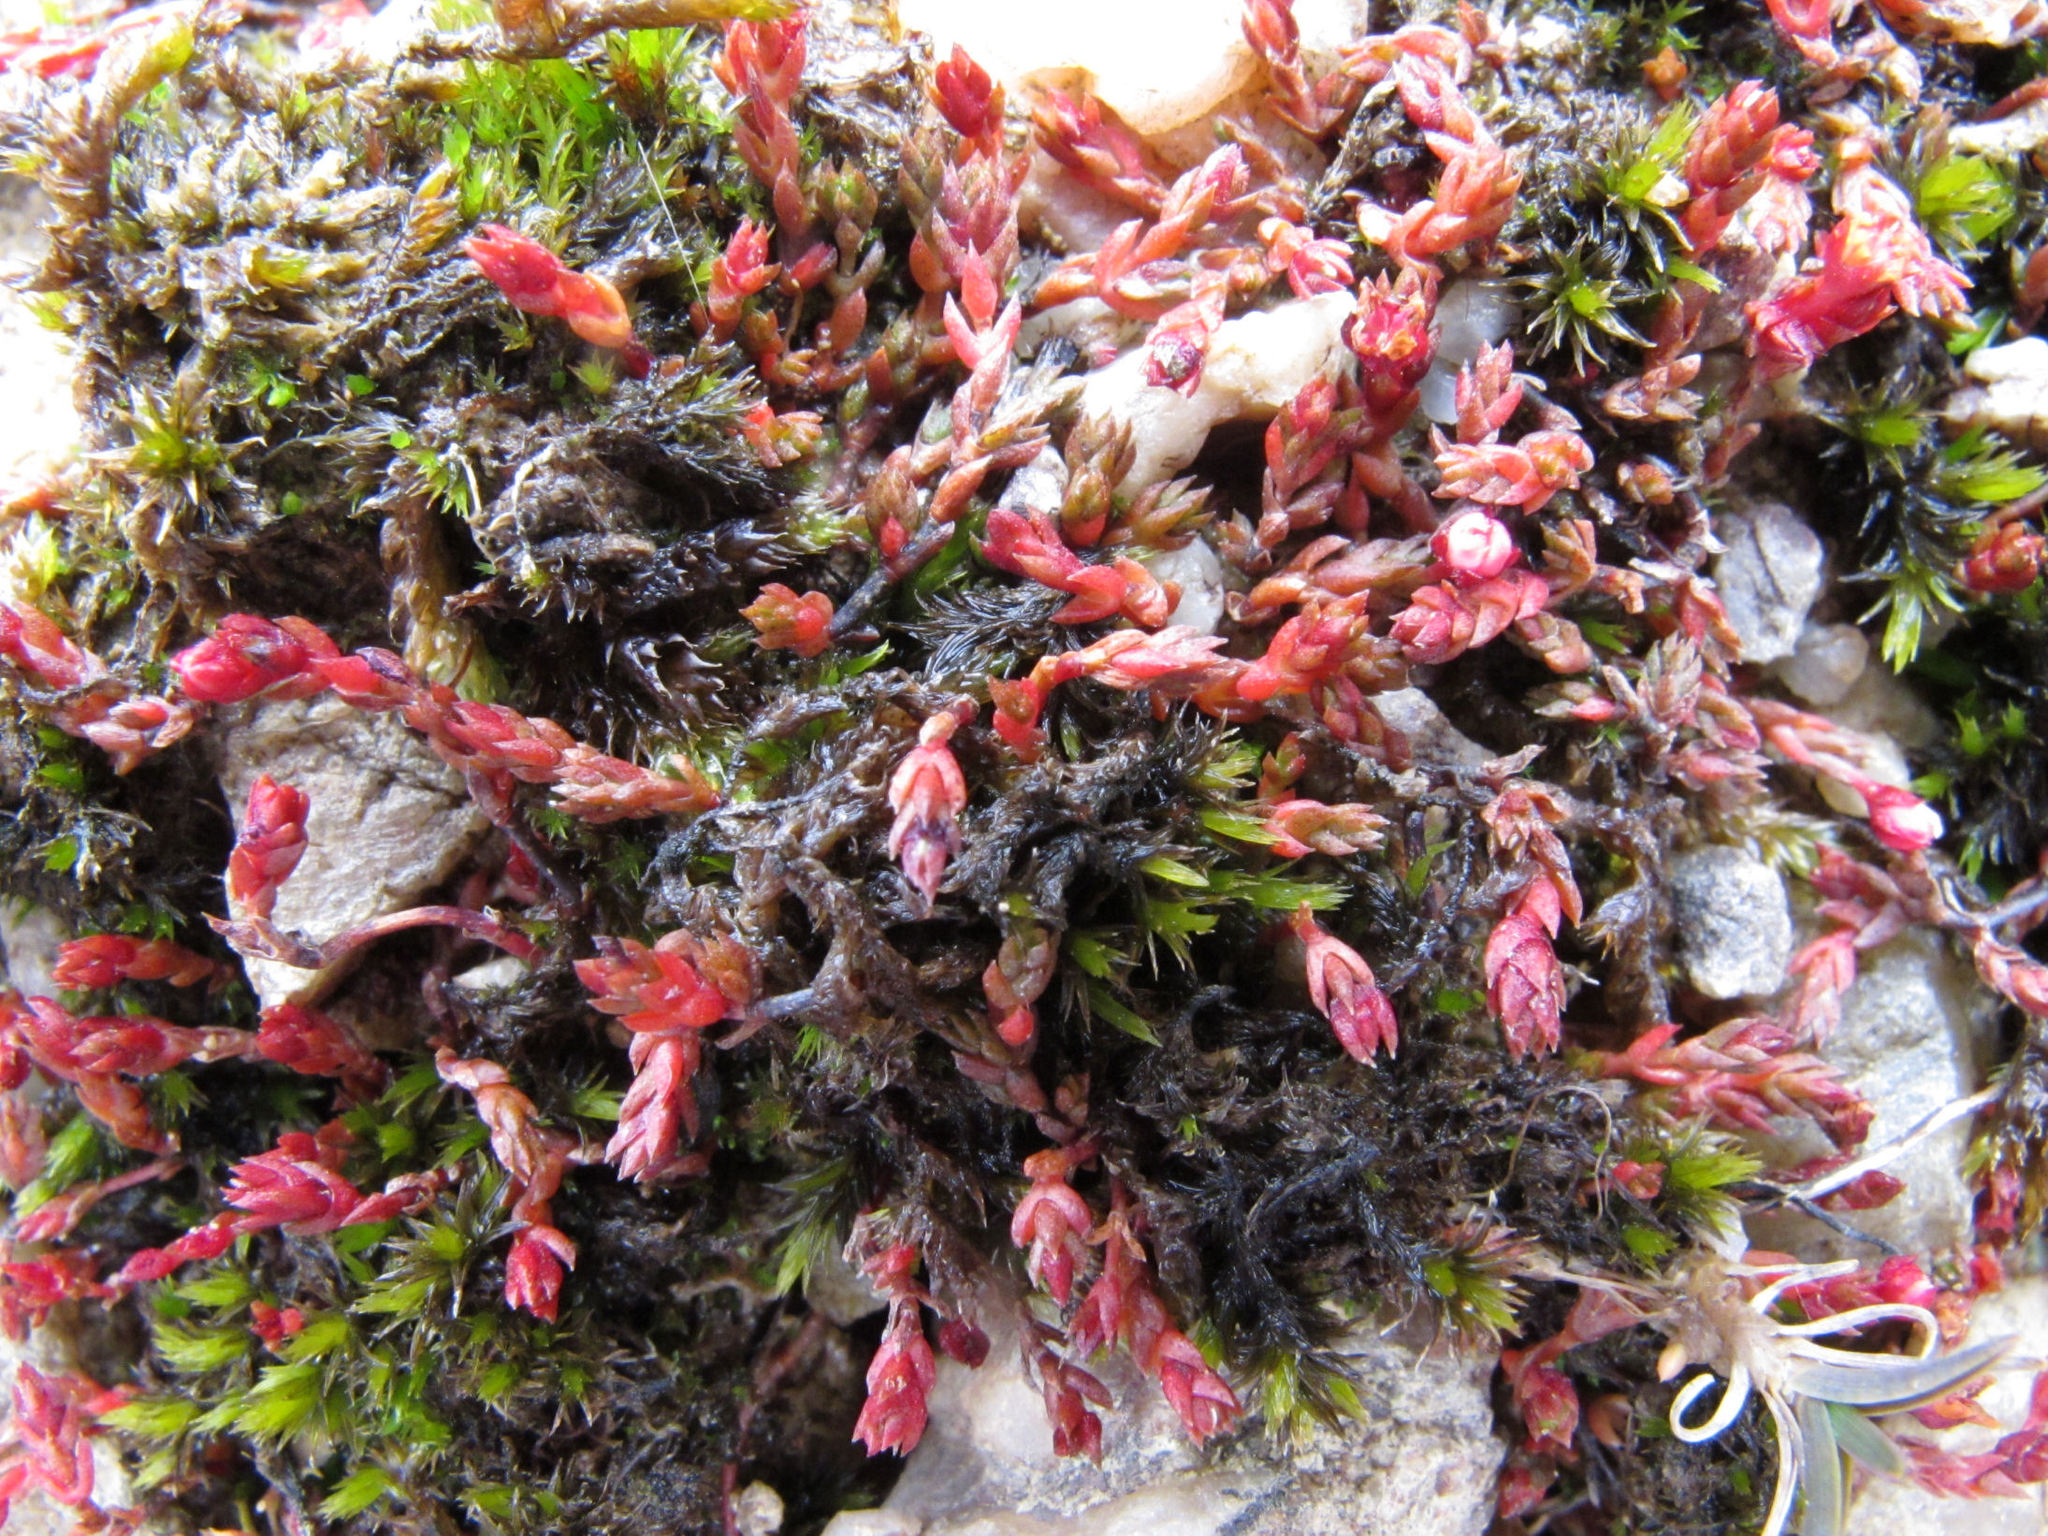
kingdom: Plantae
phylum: Tracheophyta
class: Magnoliopsida
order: Saxifragales
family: Crassulaceae
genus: Crassula
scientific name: Crassula multicaulis
